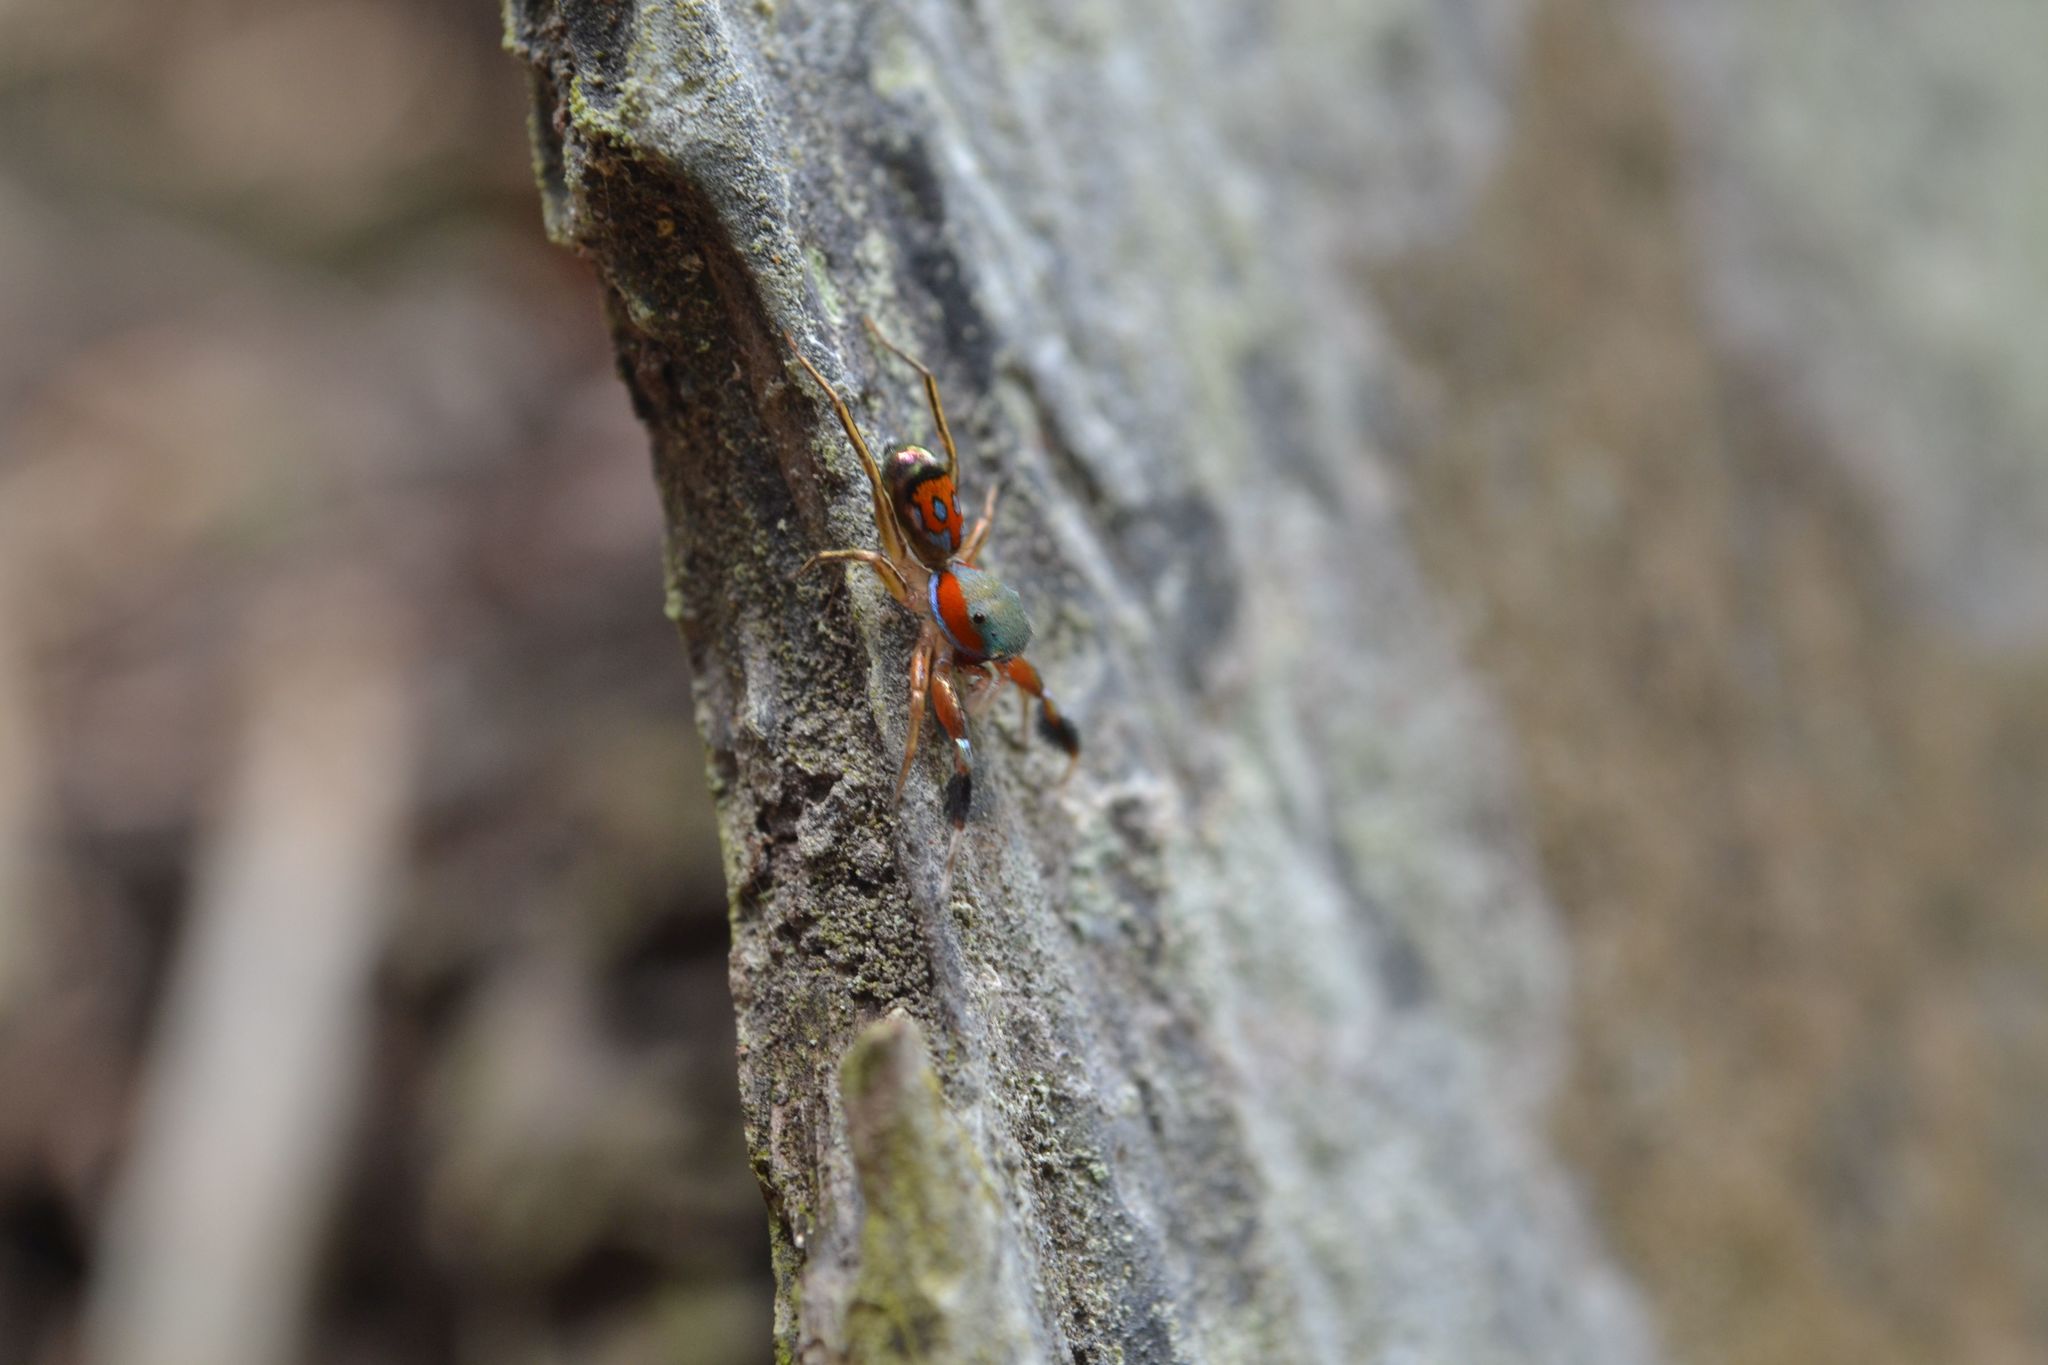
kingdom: Animalia
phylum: Arthropoda
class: Arachnida
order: Araneae
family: Salticidae
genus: Siler
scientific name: Siler semiglaucus
